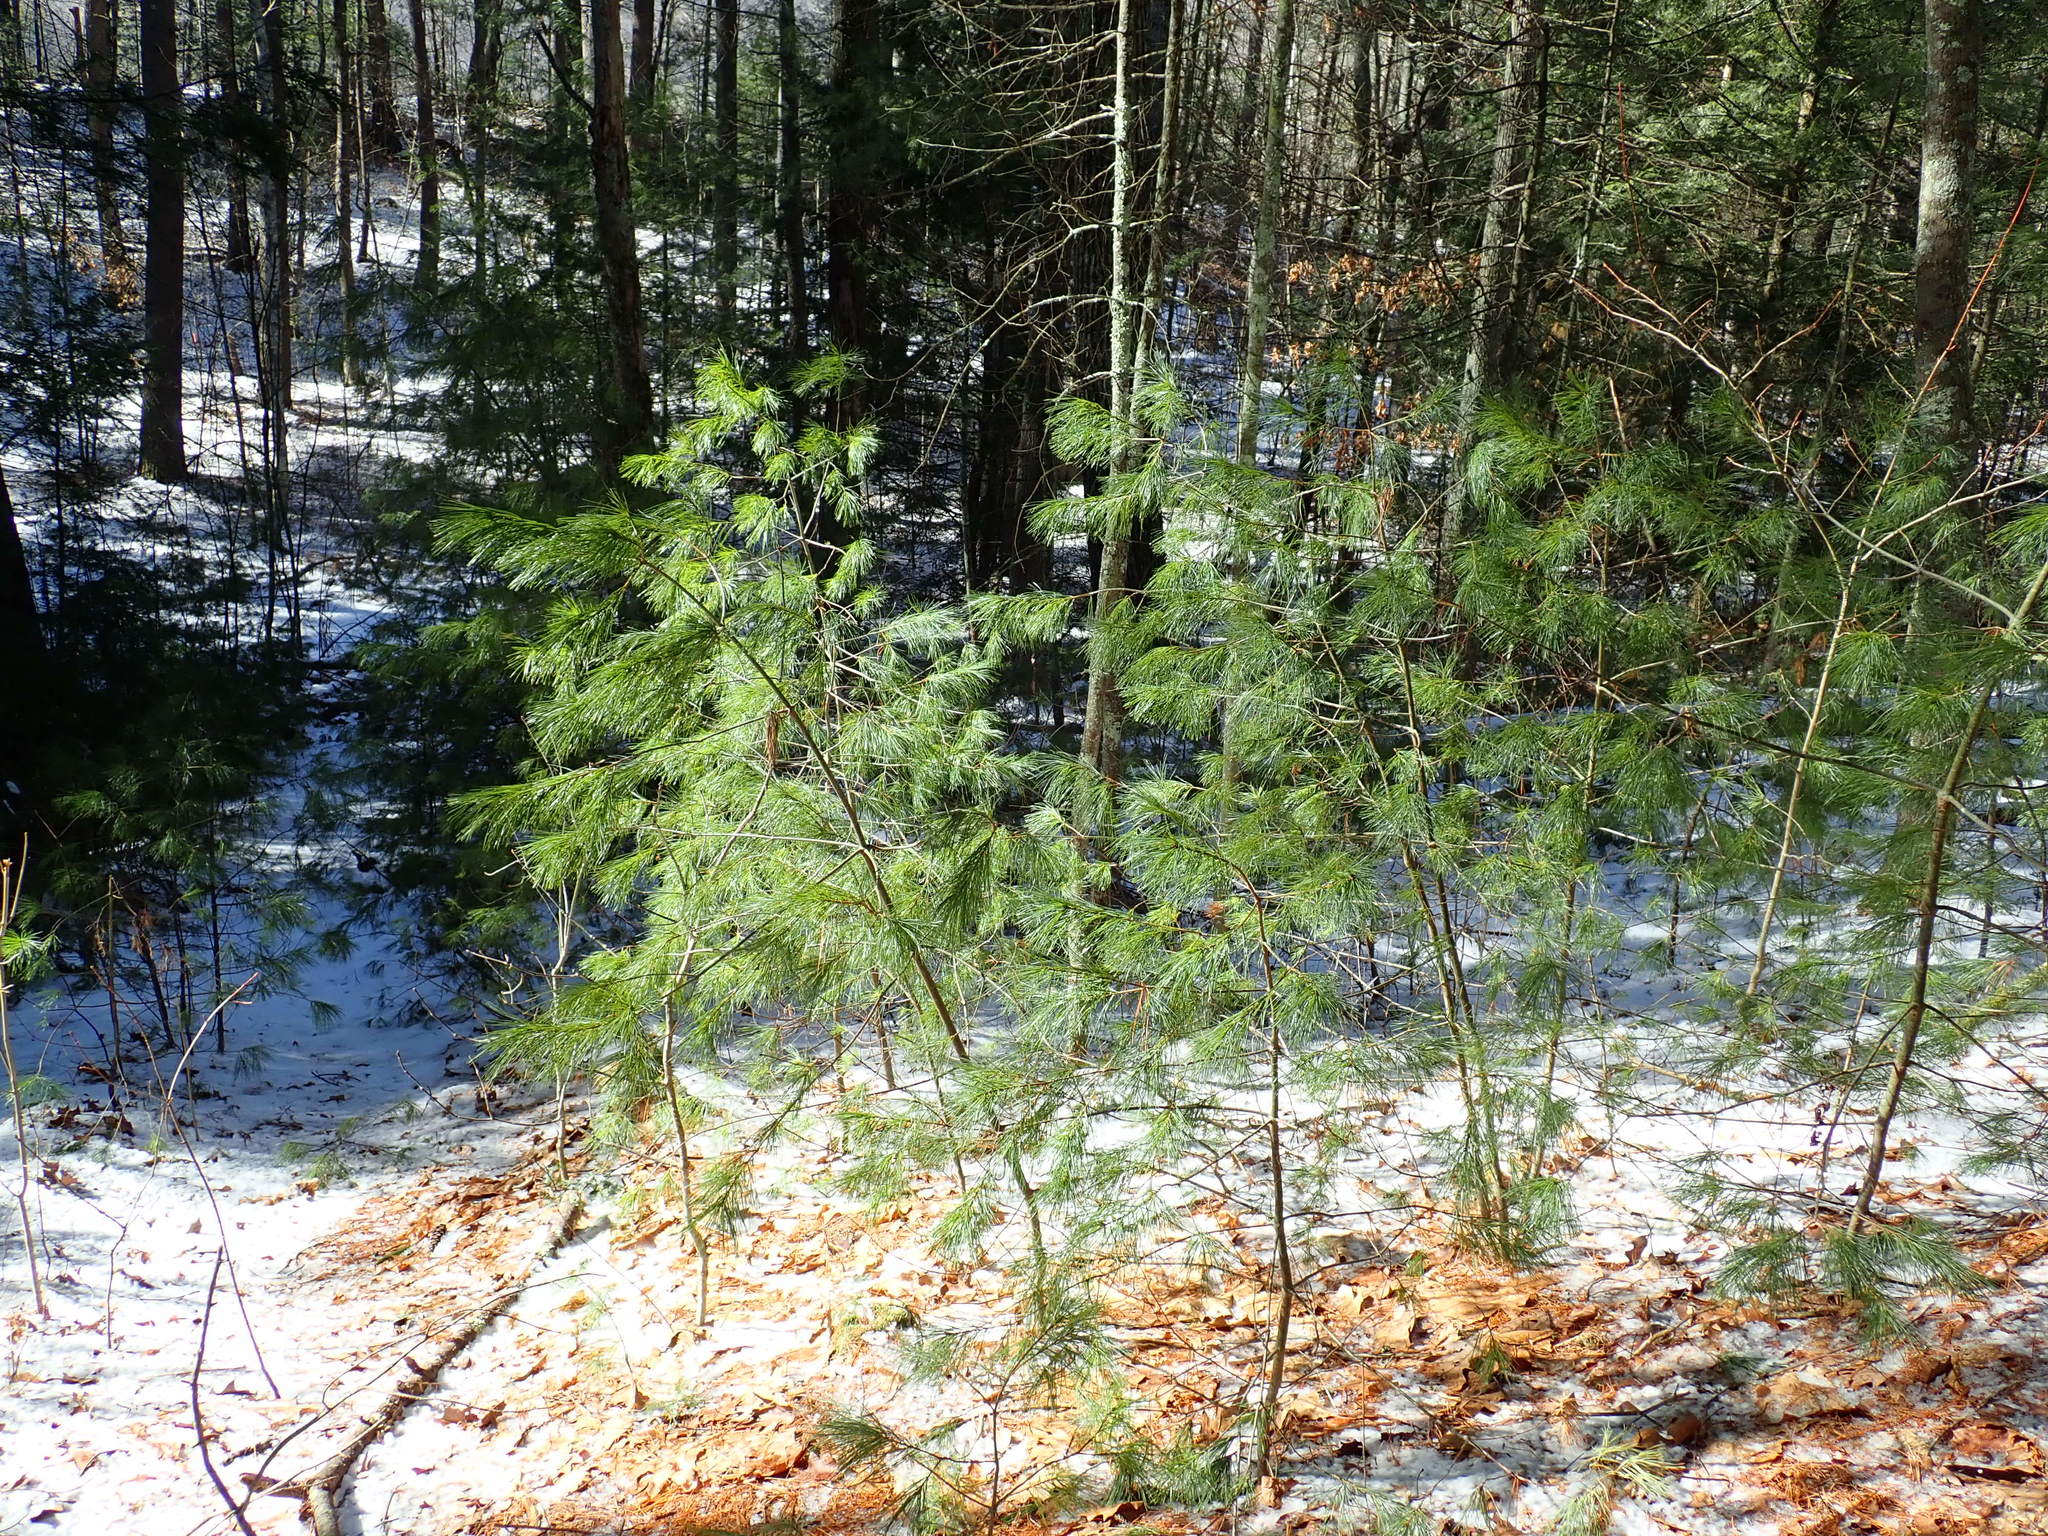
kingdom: Plantae
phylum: Tracheophyta
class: Pinopsida
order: Pinales
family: Pinaceae
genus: Pinus
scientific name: Pinus strobus
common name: Weymouth pine
